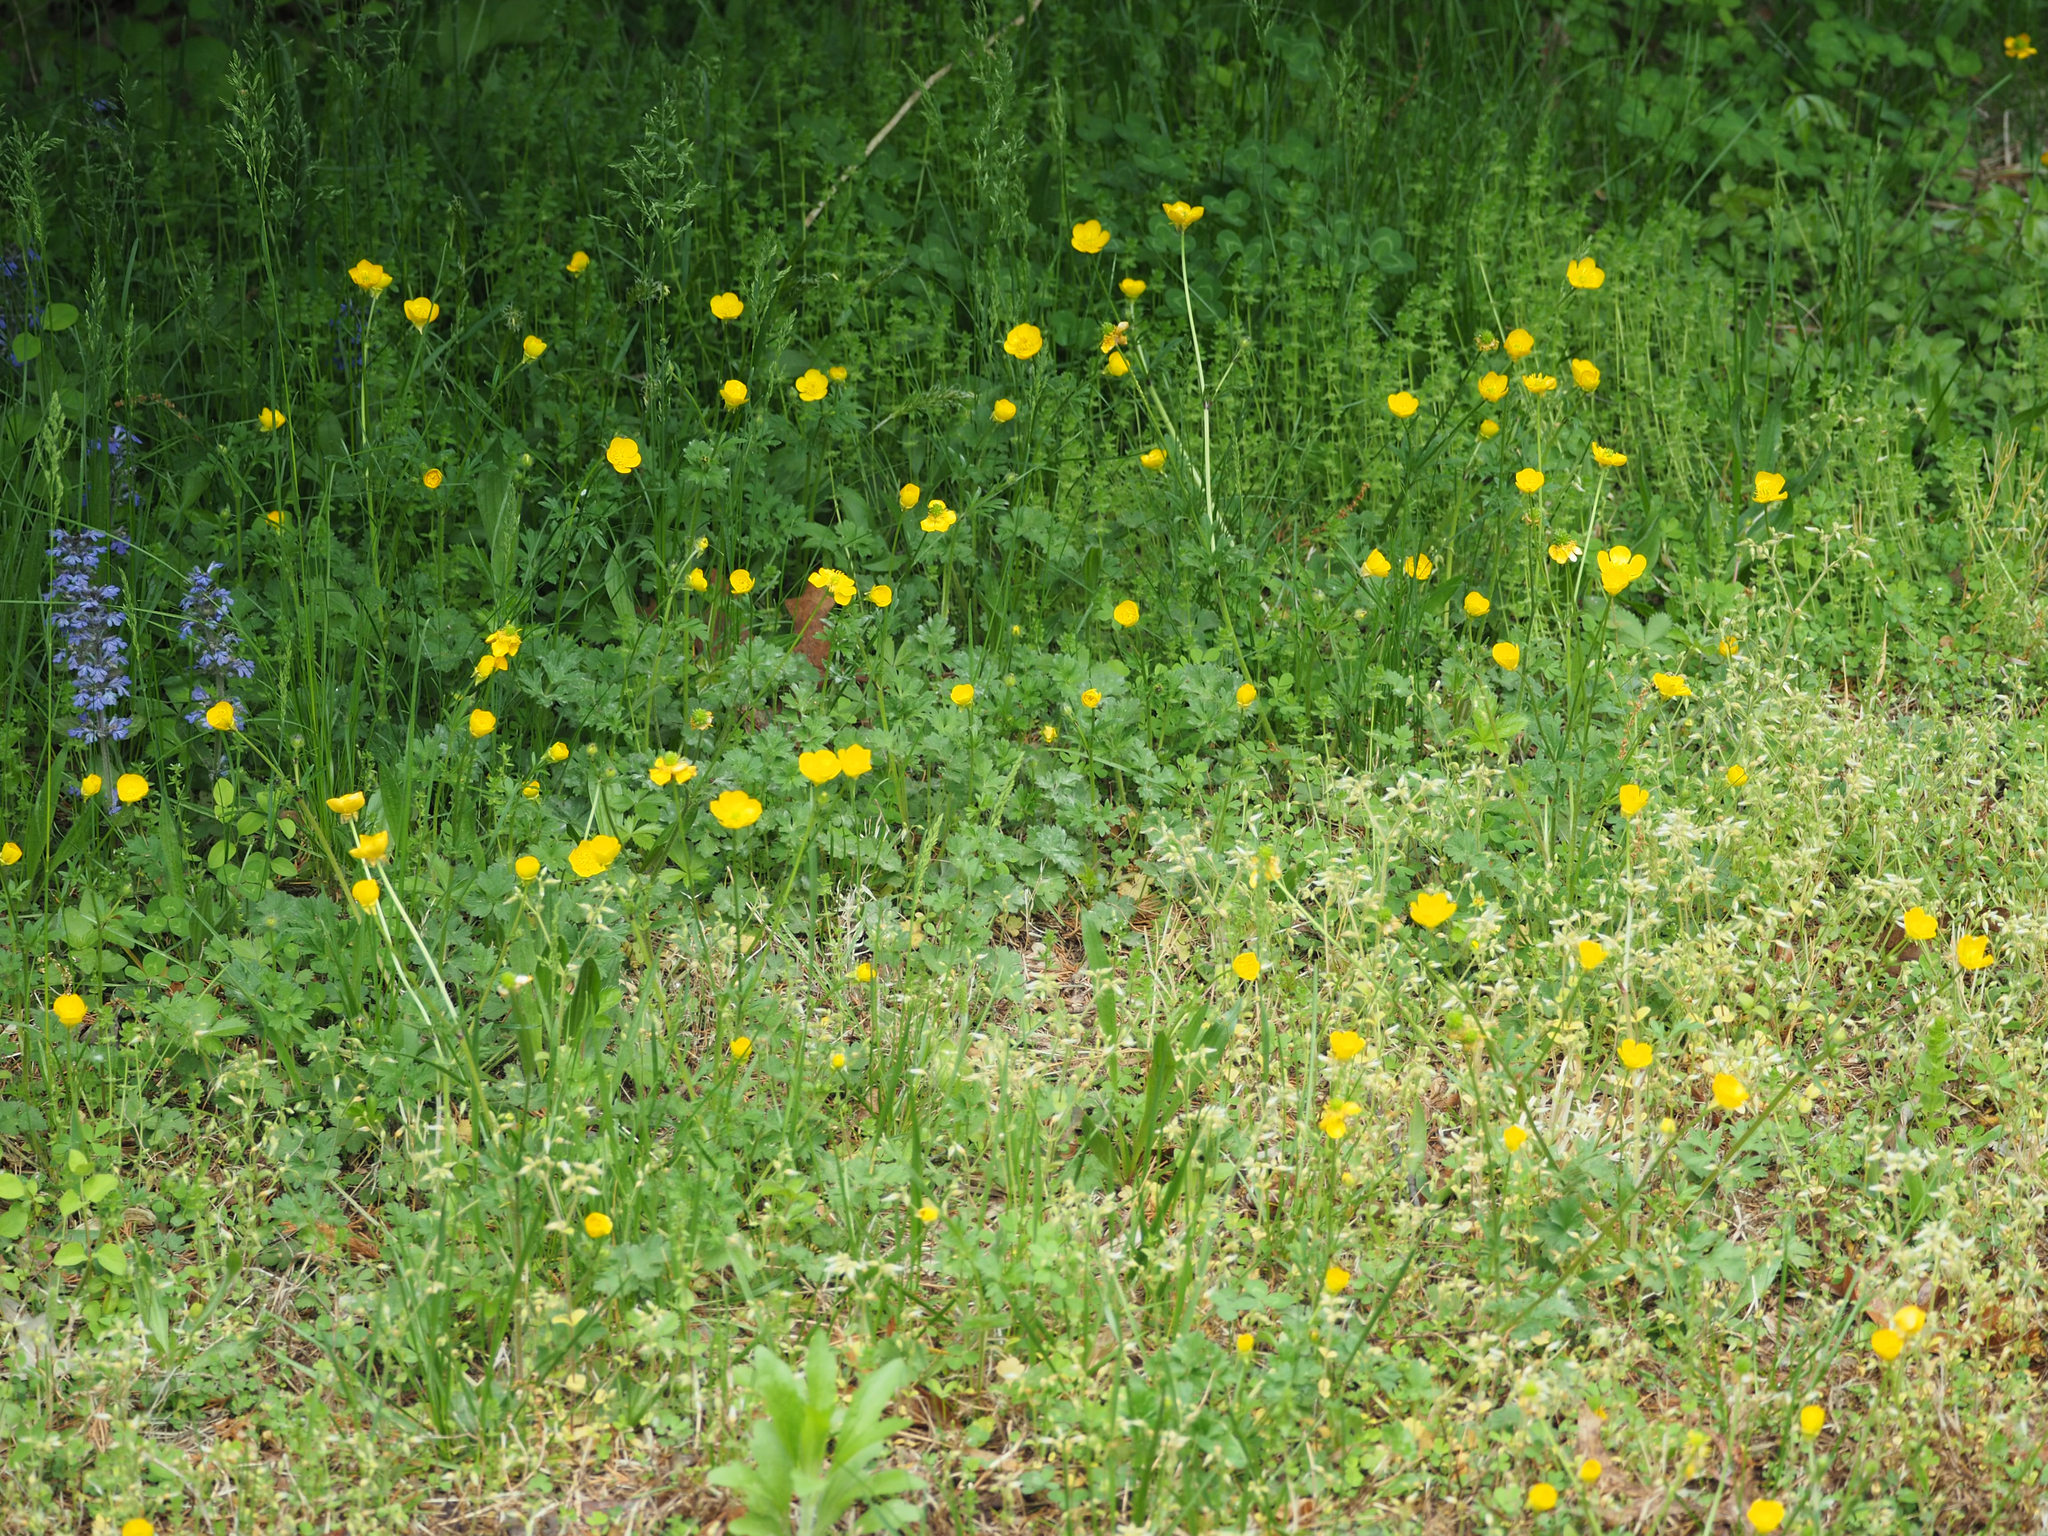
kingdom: Plantae
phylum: Tracheophyta
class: Magnoliopsida
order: Ranunculales
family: Ranunculaceae
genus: Ranunculus
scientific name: Ranunculus bulbosus
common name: Bulbous buttercup
